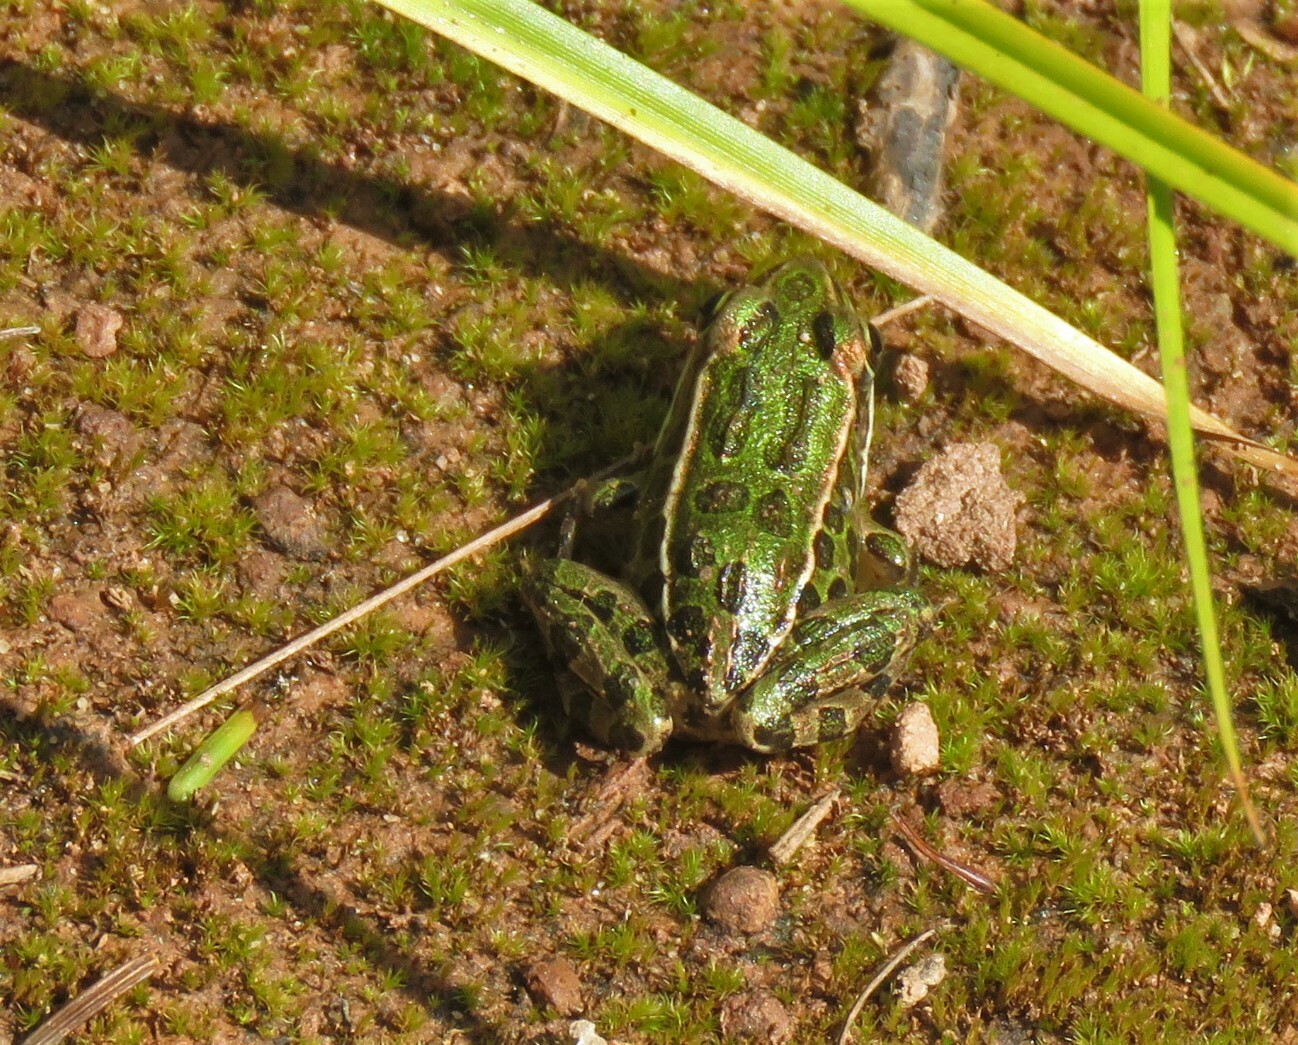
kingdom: Animalia
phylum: Chordata
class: Amphibia
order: Anura
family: Ranidae
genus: Lithobates
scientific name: Lithobates pipiens
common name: Northern leopard frog
